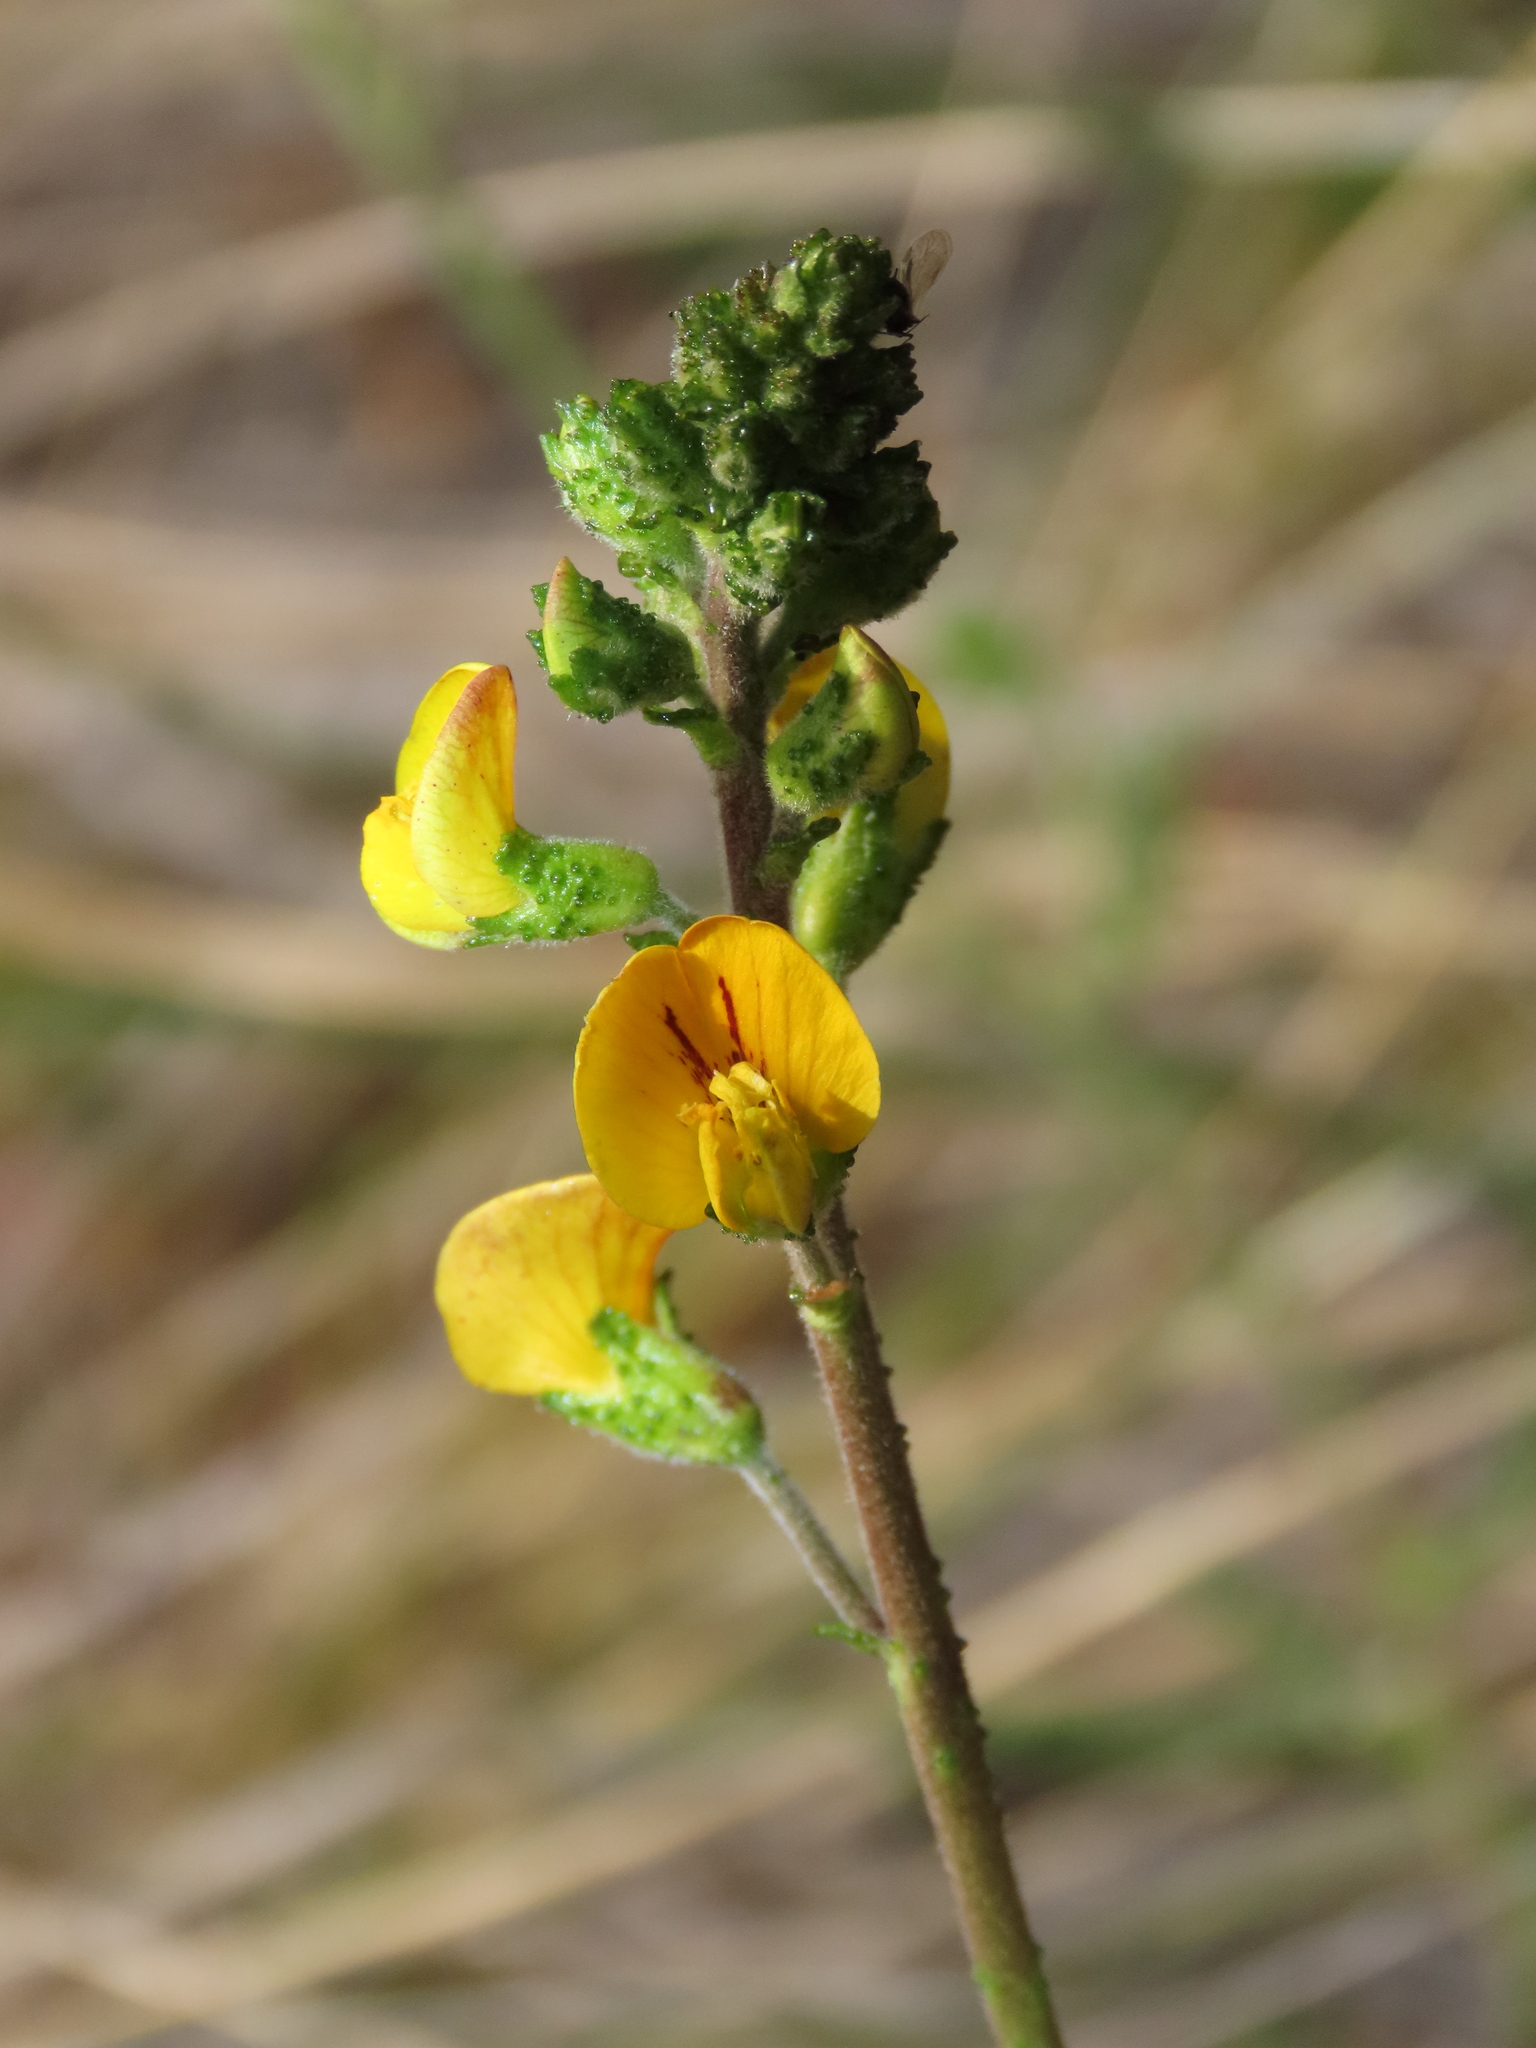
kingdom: Plantae
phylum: Tracheophyta
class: Magnoliopsida
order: Fabales
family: Fabaceae
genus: Adesmia
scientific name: Adesmia emarginata
